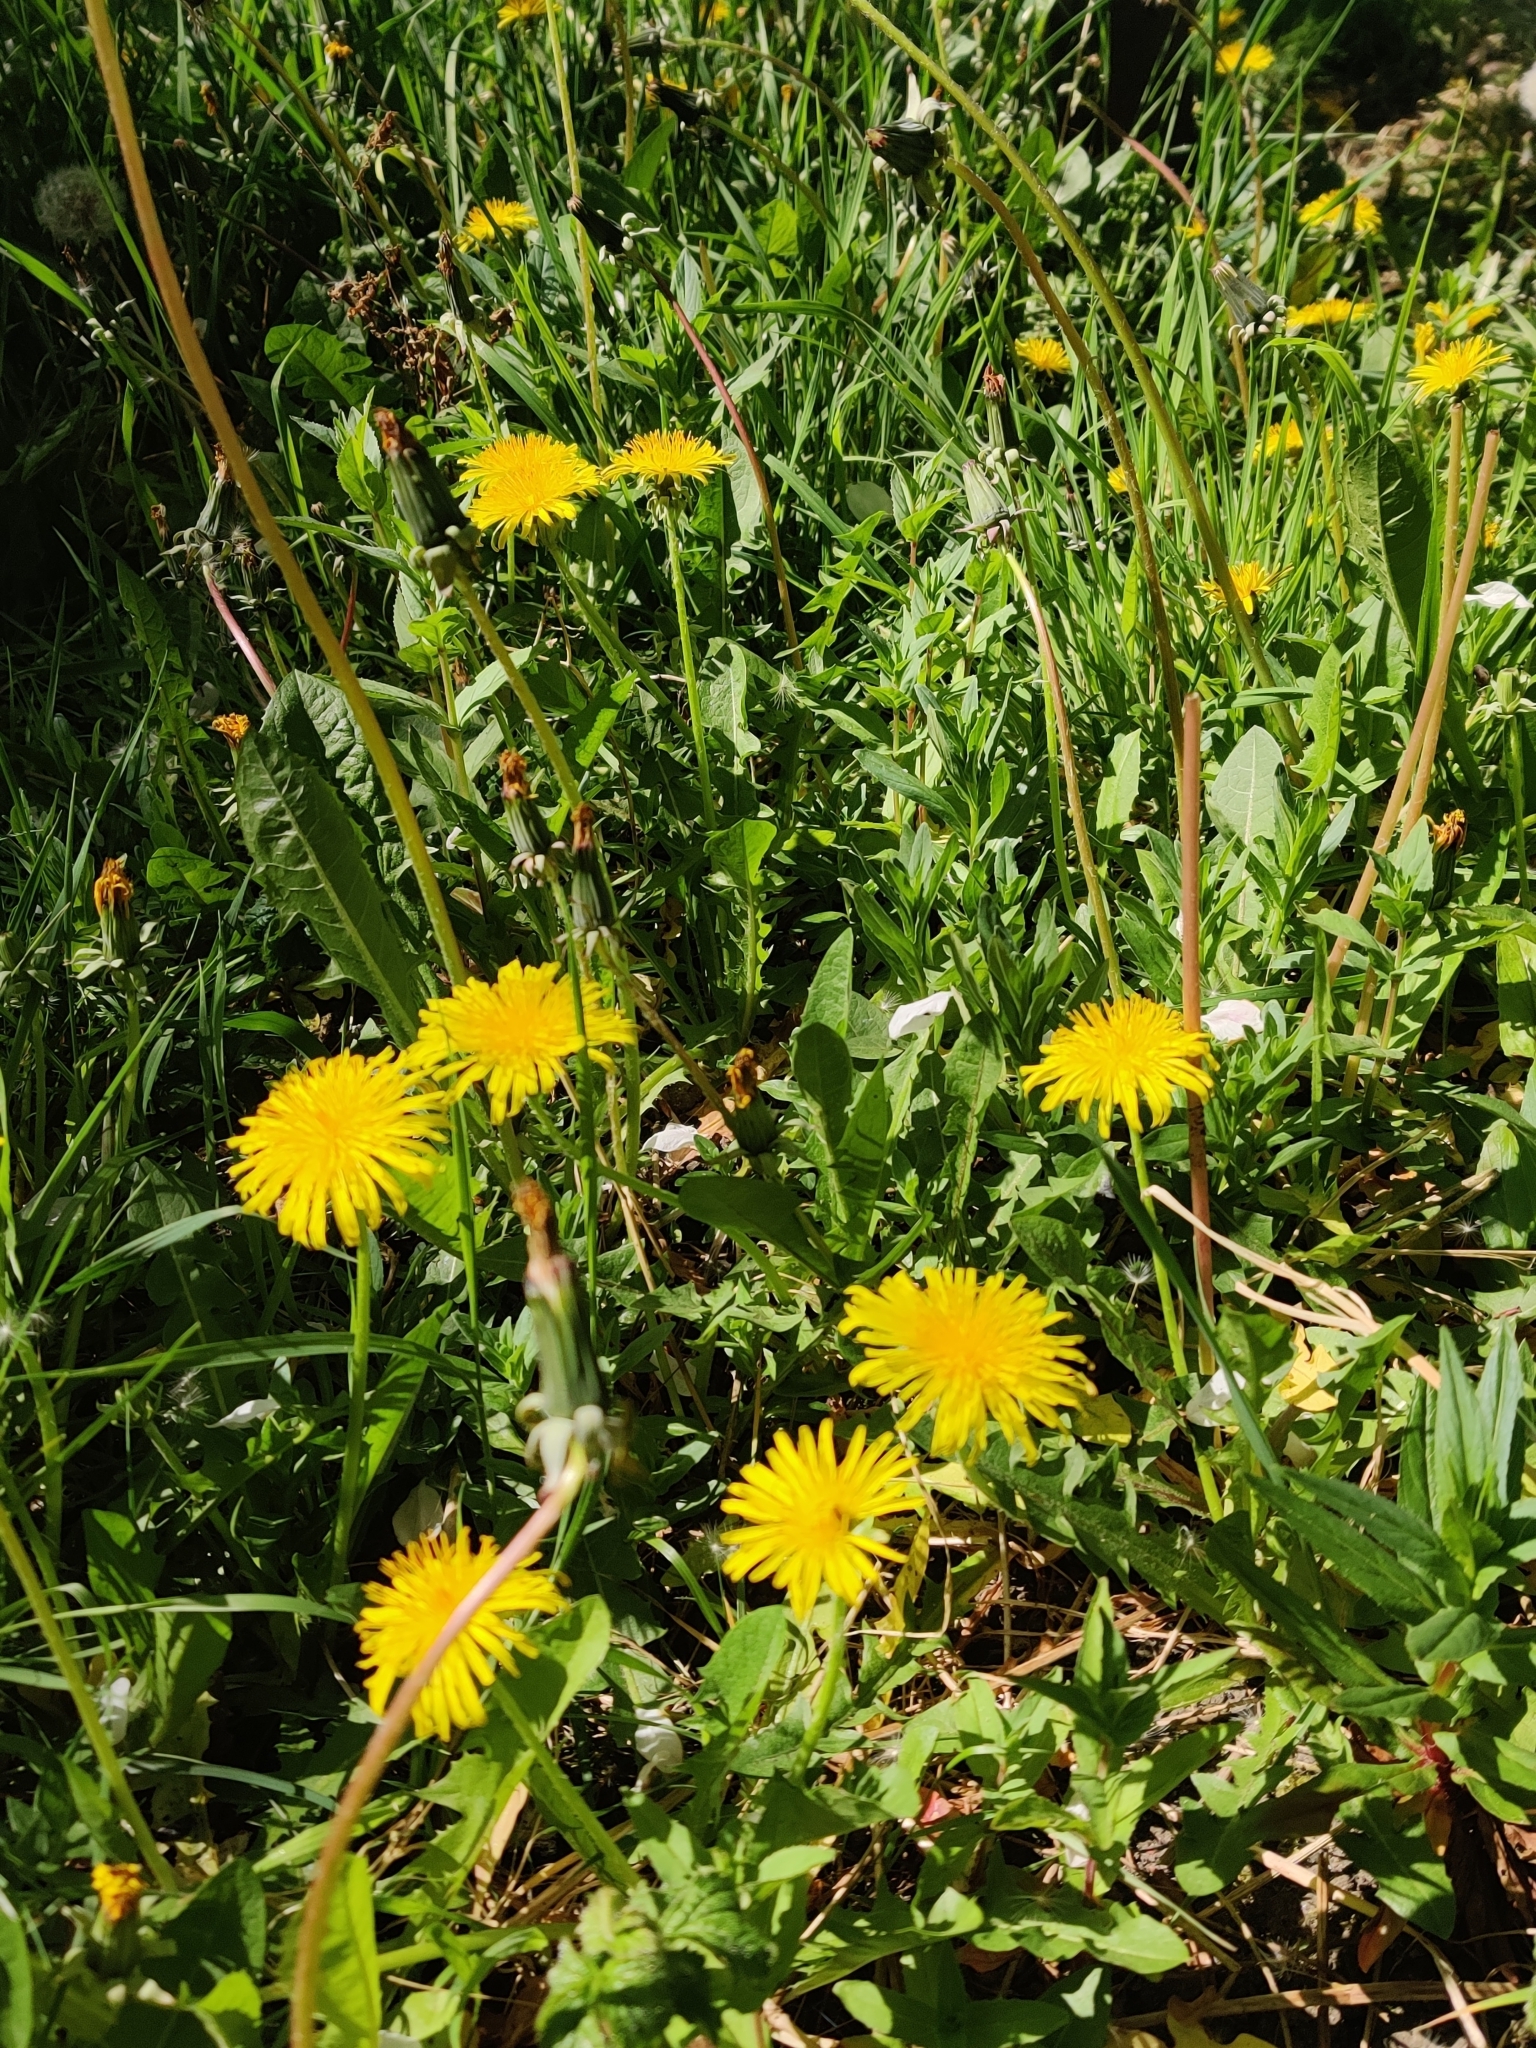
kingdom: Plantae
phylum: Tracheophyta
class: Magnoliopsida
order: Asterales
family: Asteraceae
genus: Taraxacum
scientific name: Taraxacum officinale
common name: Common dandelion
